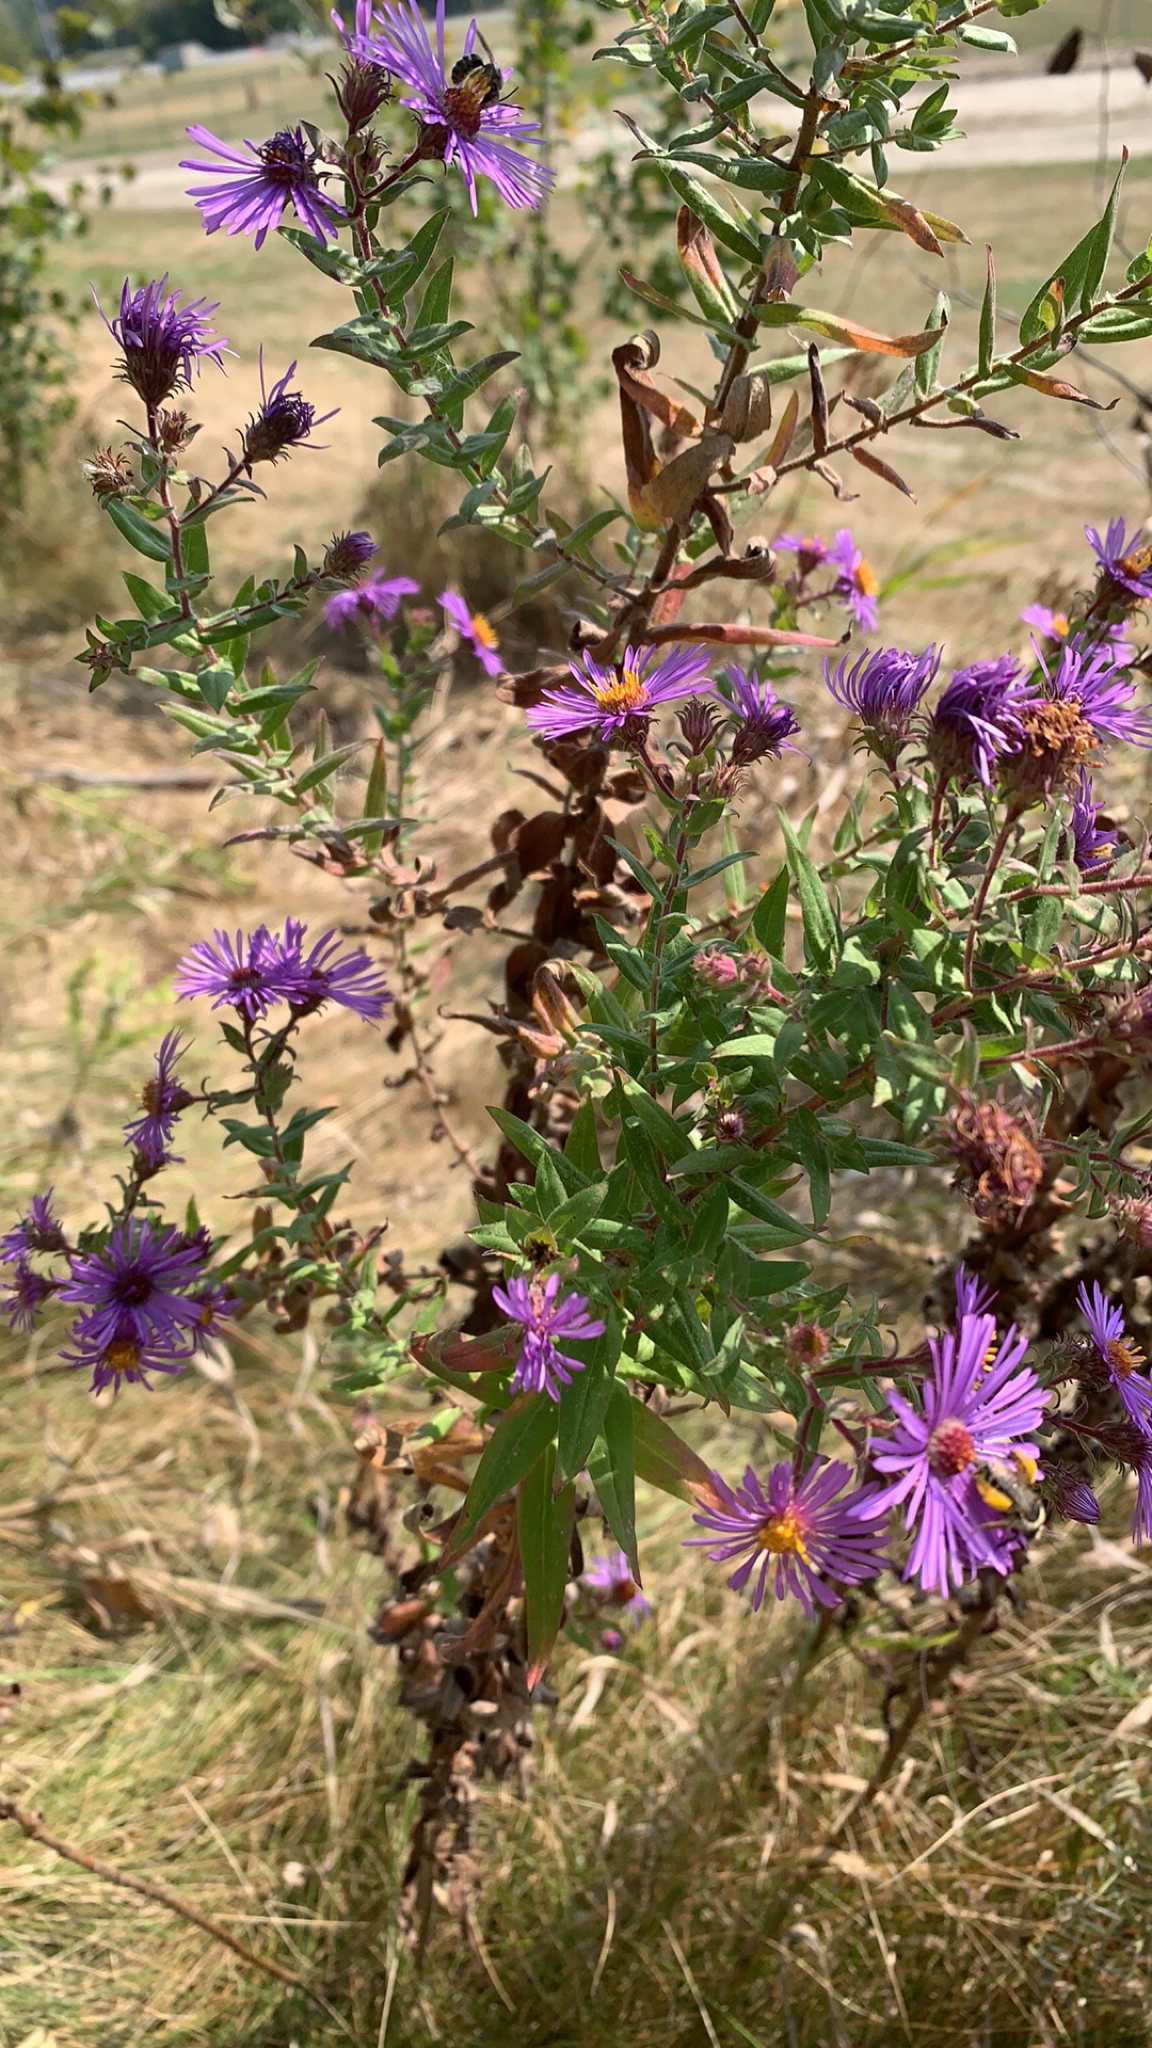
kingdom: Plantae
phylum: Tracheophyta
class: Magnoliopsida
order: Asterales
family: Asteraceae
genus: Symphyotrichum
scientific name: Symphyotrichum novae-angliae
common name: Michaelmas daisy
